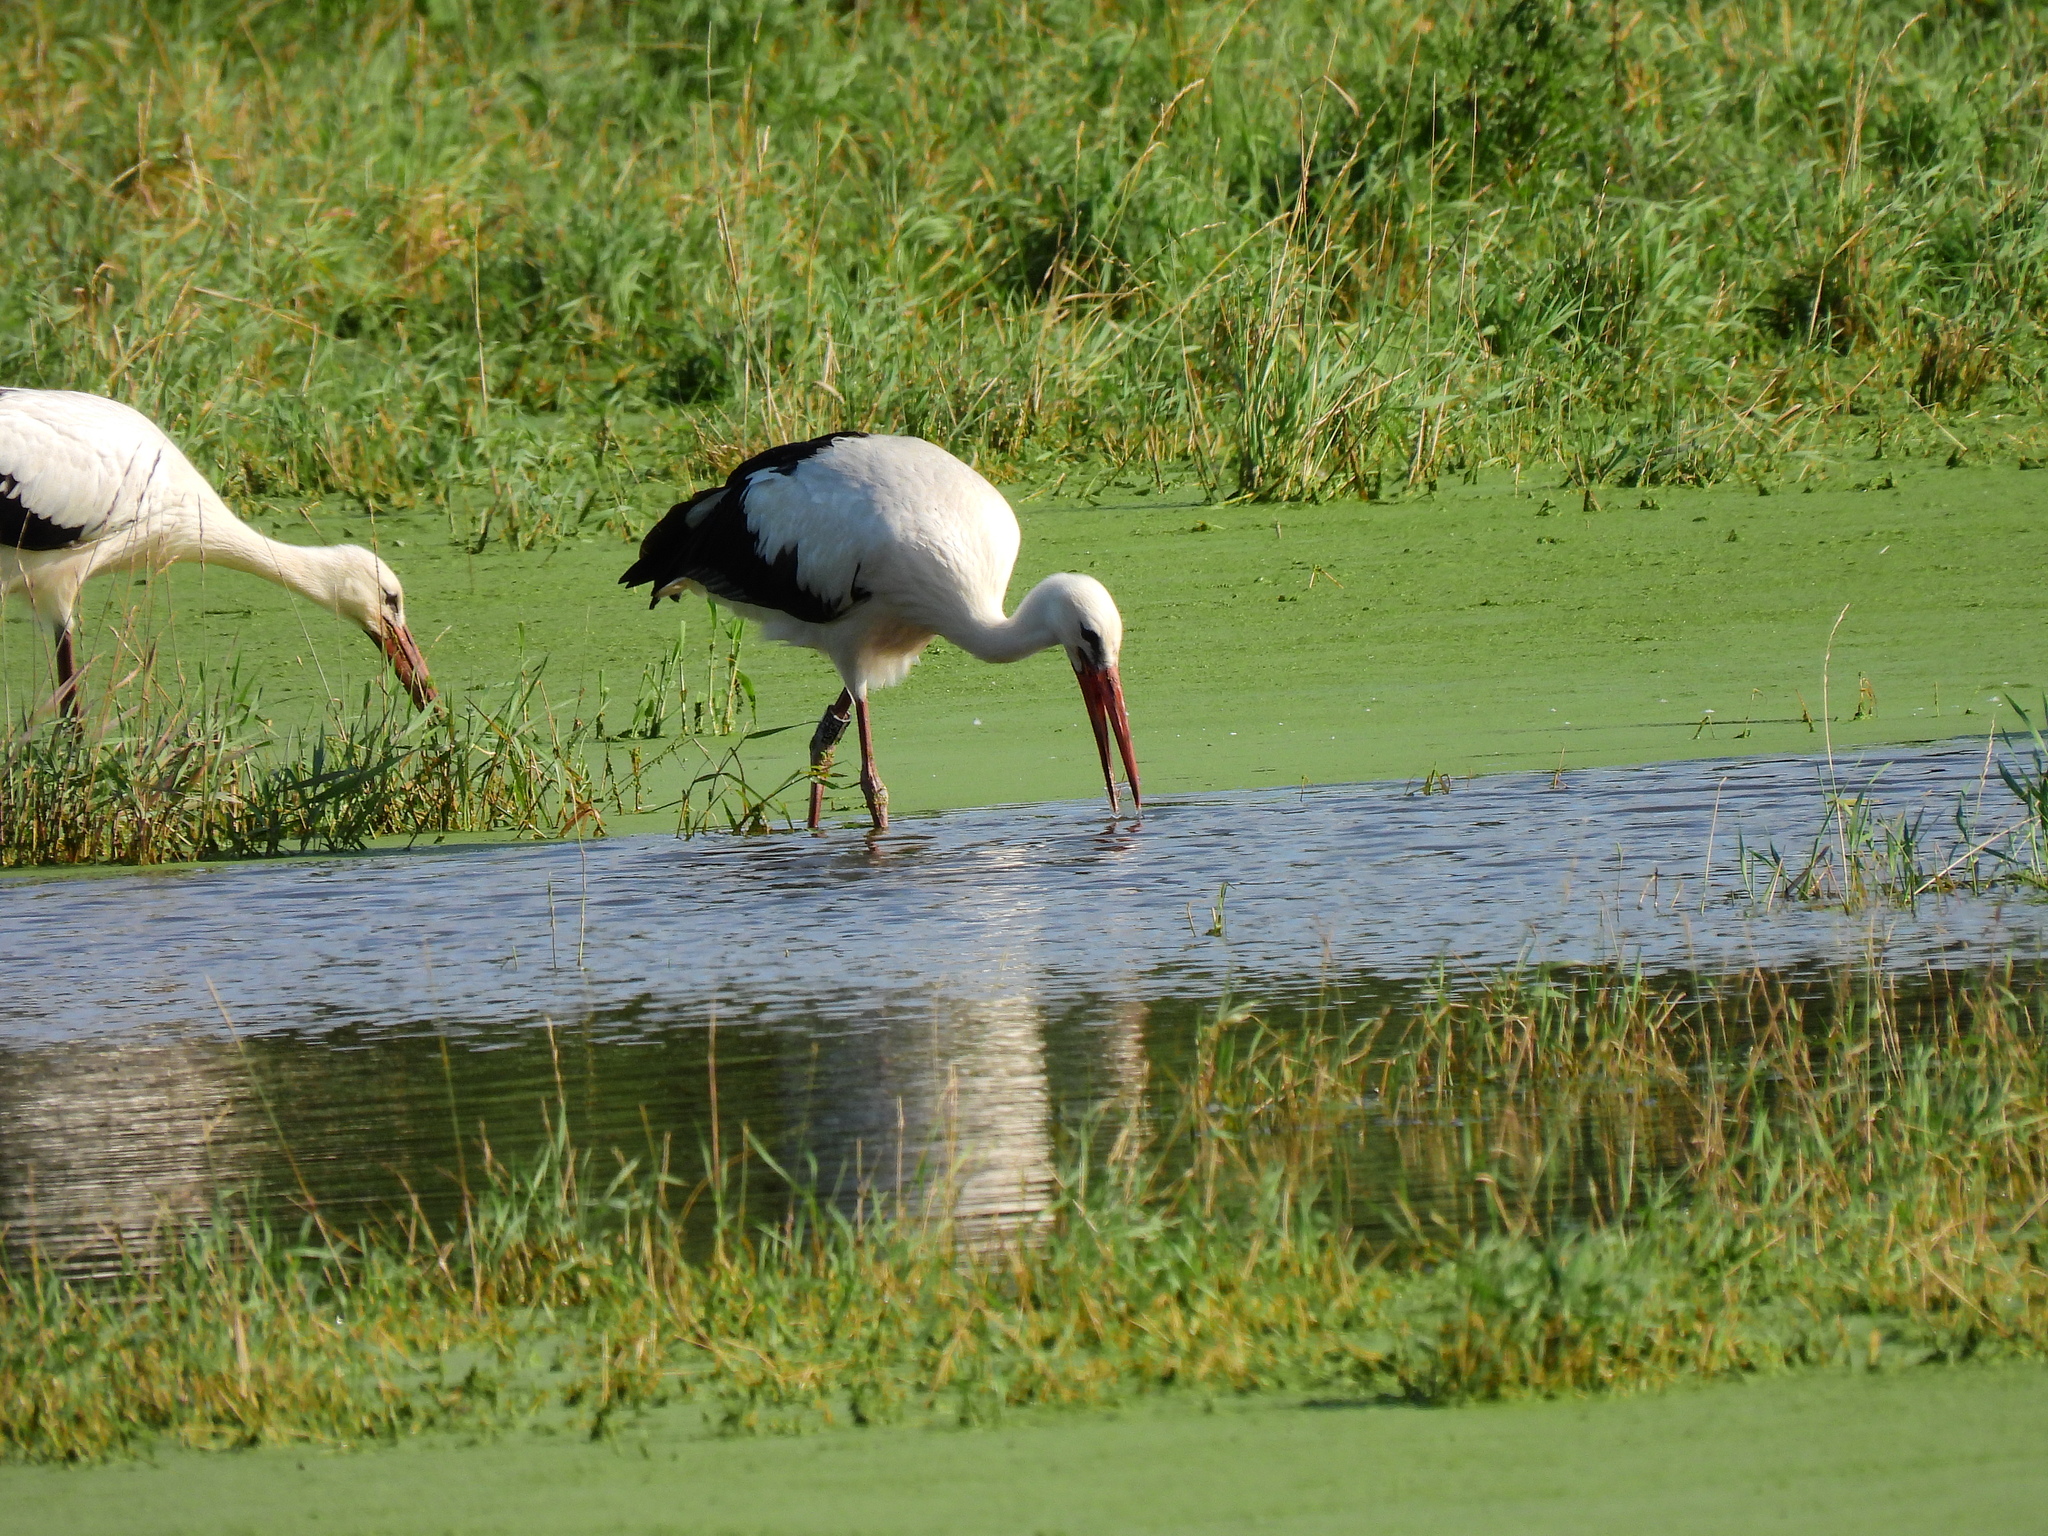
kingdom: Animalia
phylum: Chordata
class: Aves
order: Ciconiiformes
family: Ciconiidae
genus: Ciconia
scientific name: Ciconia ciconia
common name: White stork
